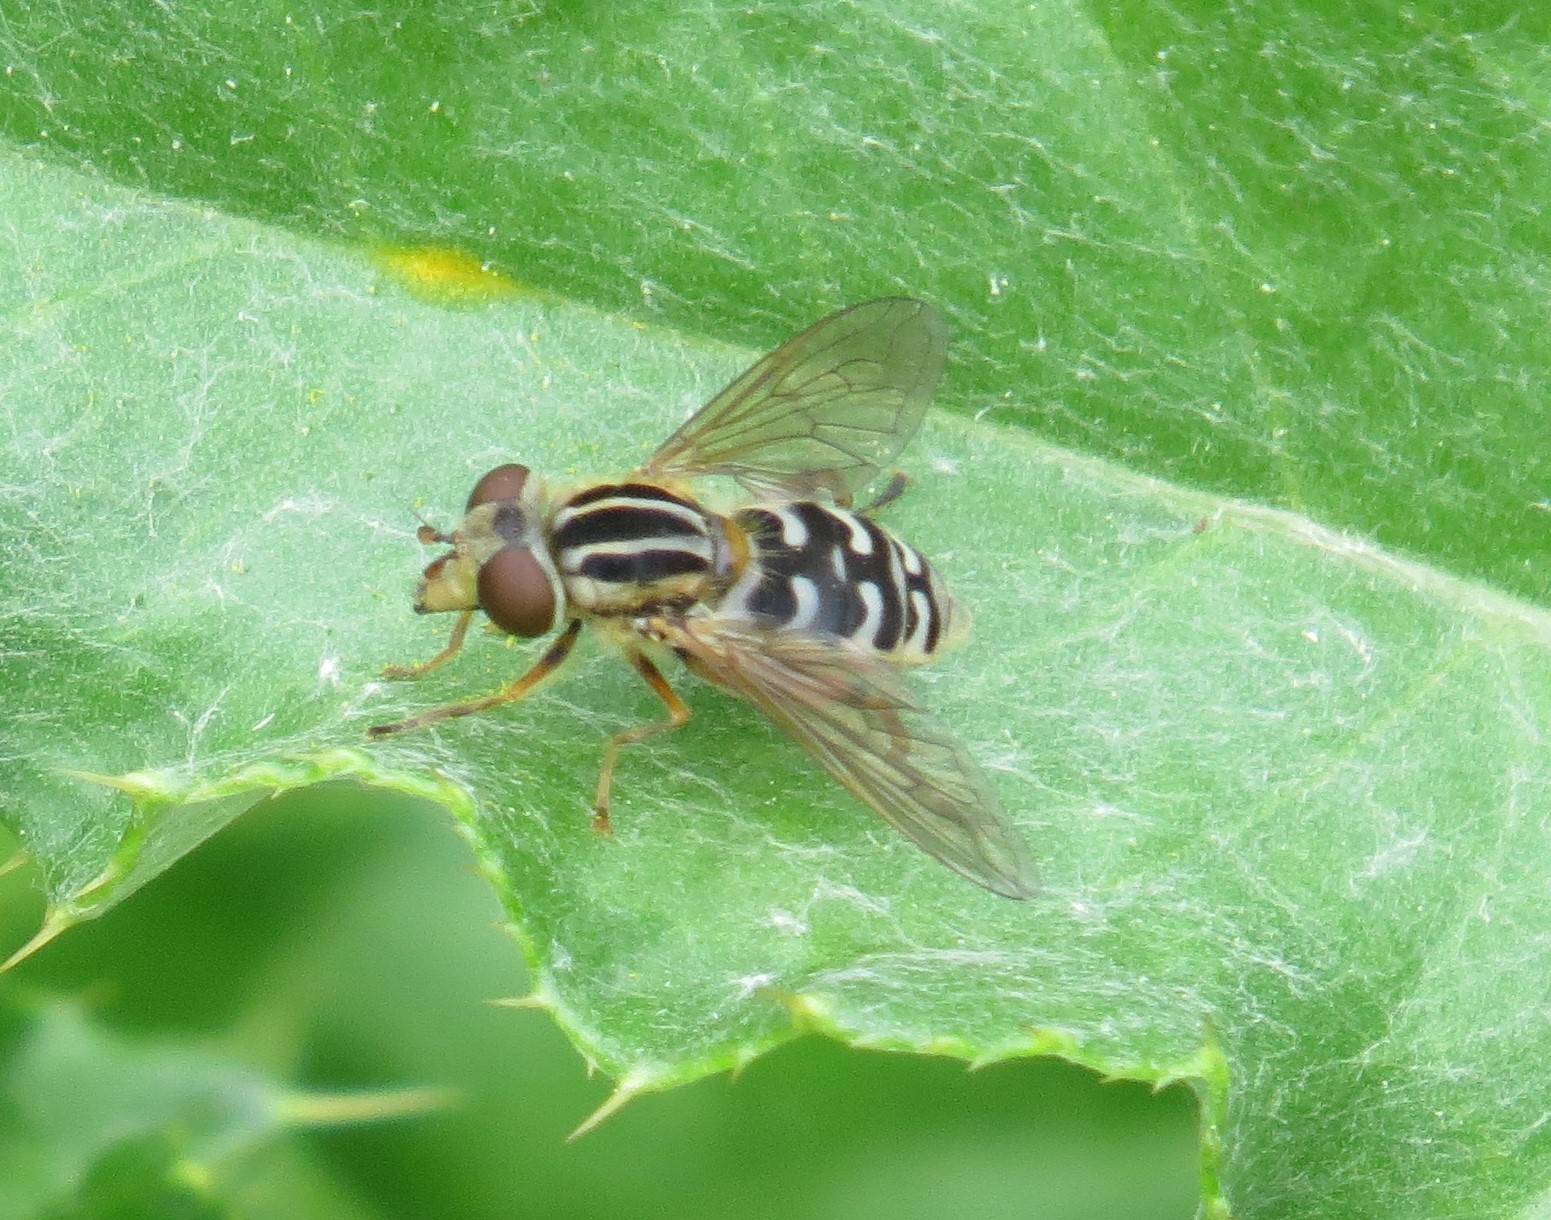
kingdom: Animalia
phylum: Arthropoda
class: Insecta
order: Diptera
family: Syrphidae
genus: Eurimyia
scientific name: Eurimyia stipatus
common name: Long-nosed swamp fly
